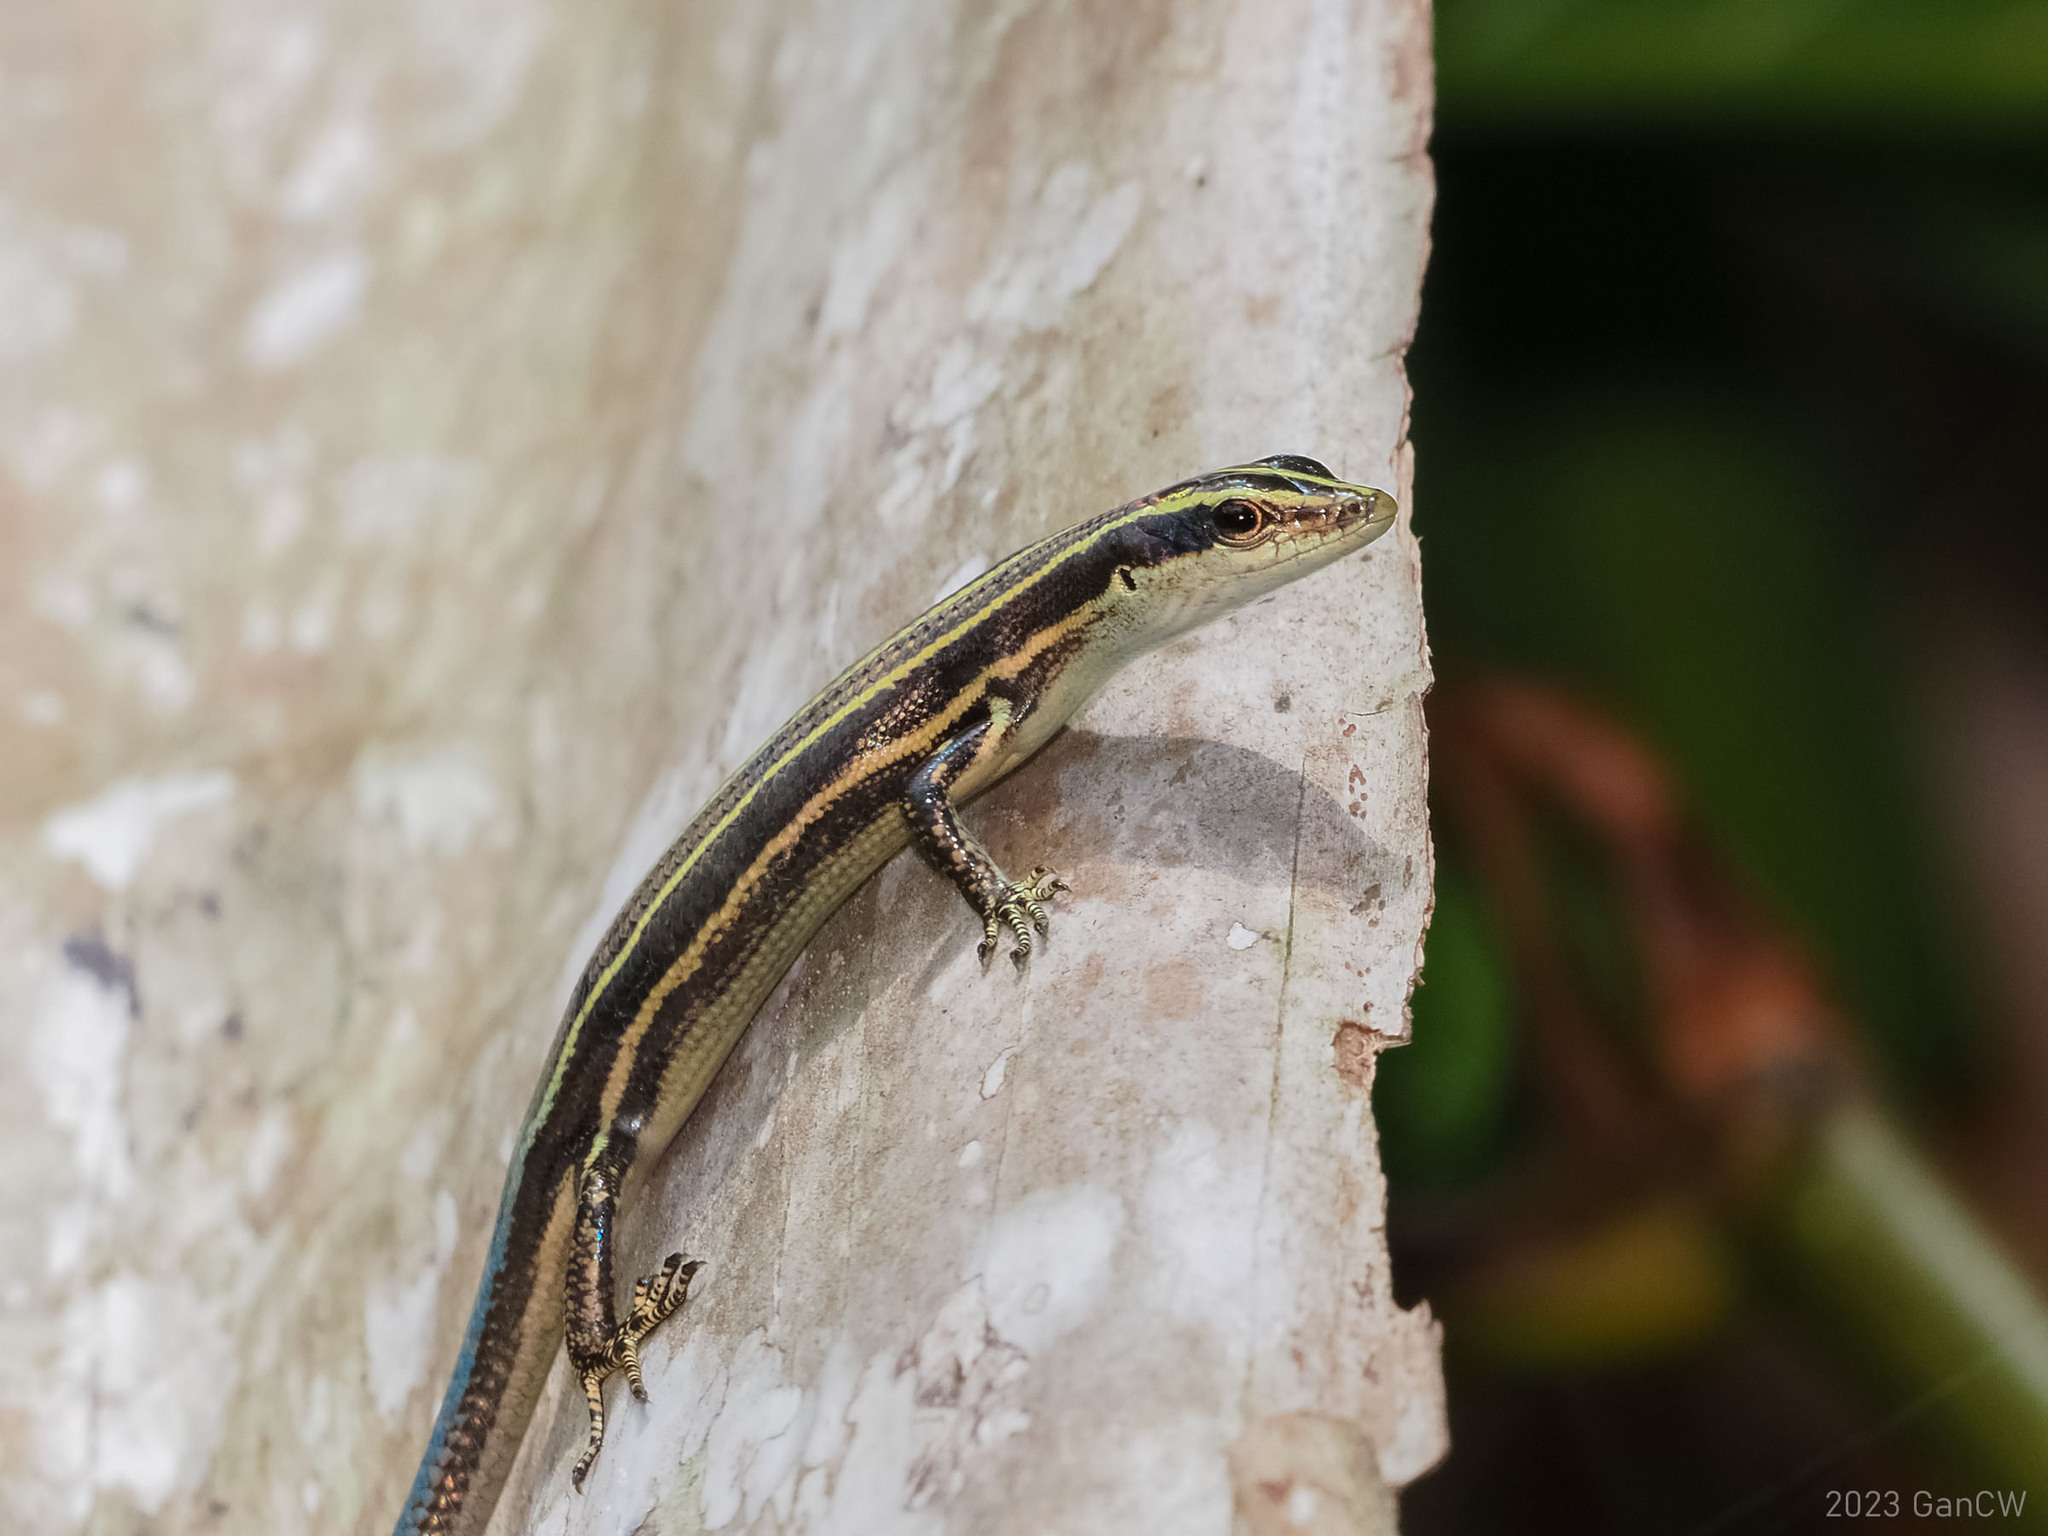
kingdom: Animalia
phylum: Chordata
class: Squamata
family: Scincidae
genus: Emoia
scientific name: Emoia caeruleocauda
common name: Pacific bluetail skink
